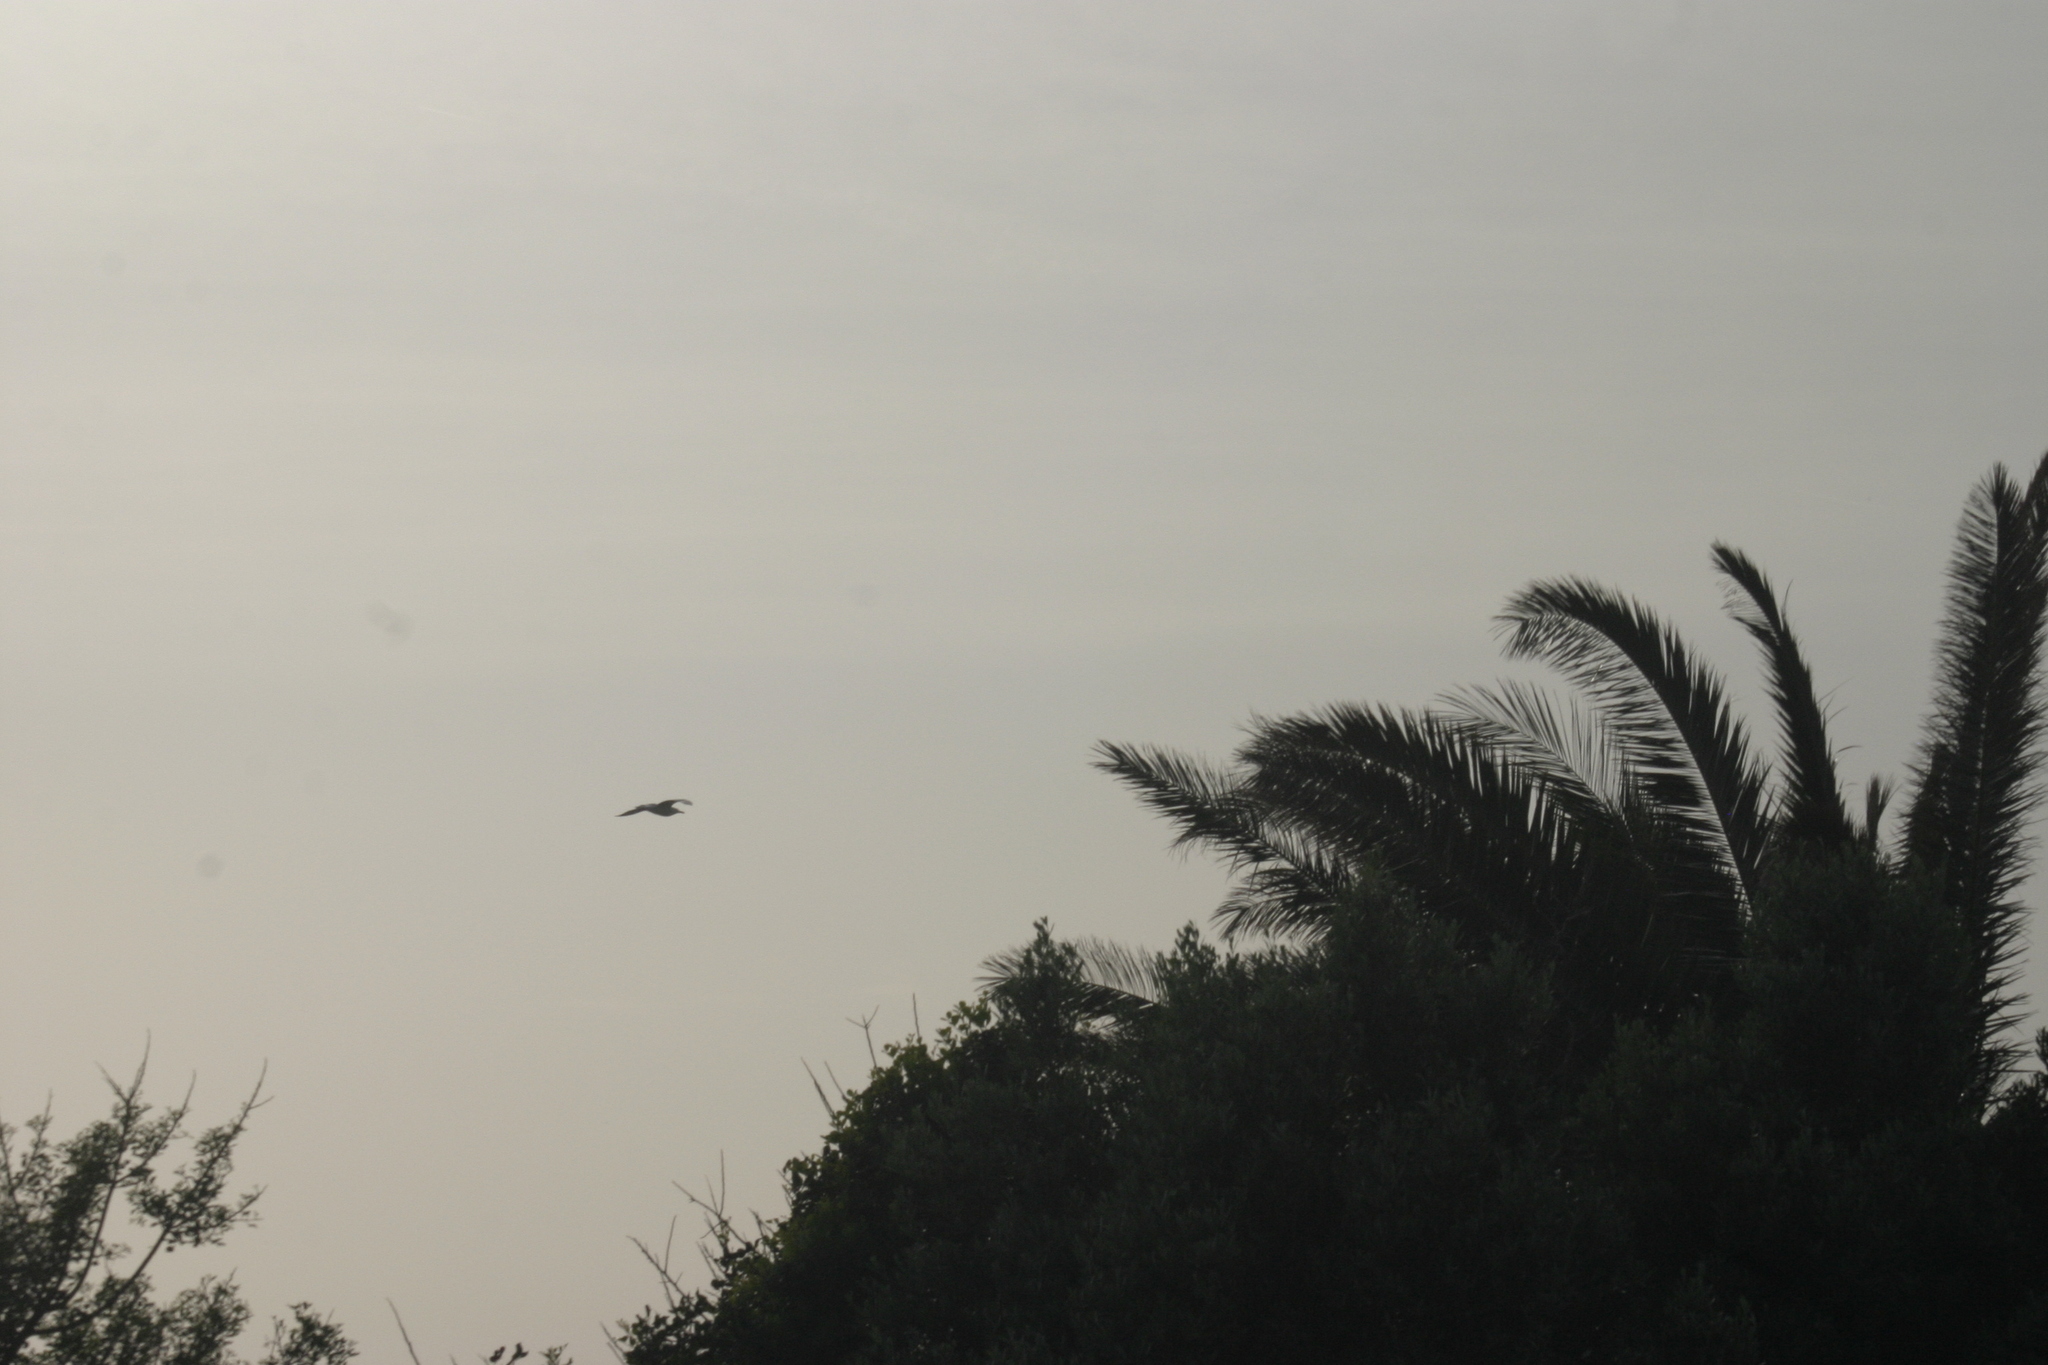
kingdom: Animalia
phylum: Chordata
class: Aves
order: Charadriiformes
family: Laridae
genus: Larus
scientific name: Larus
